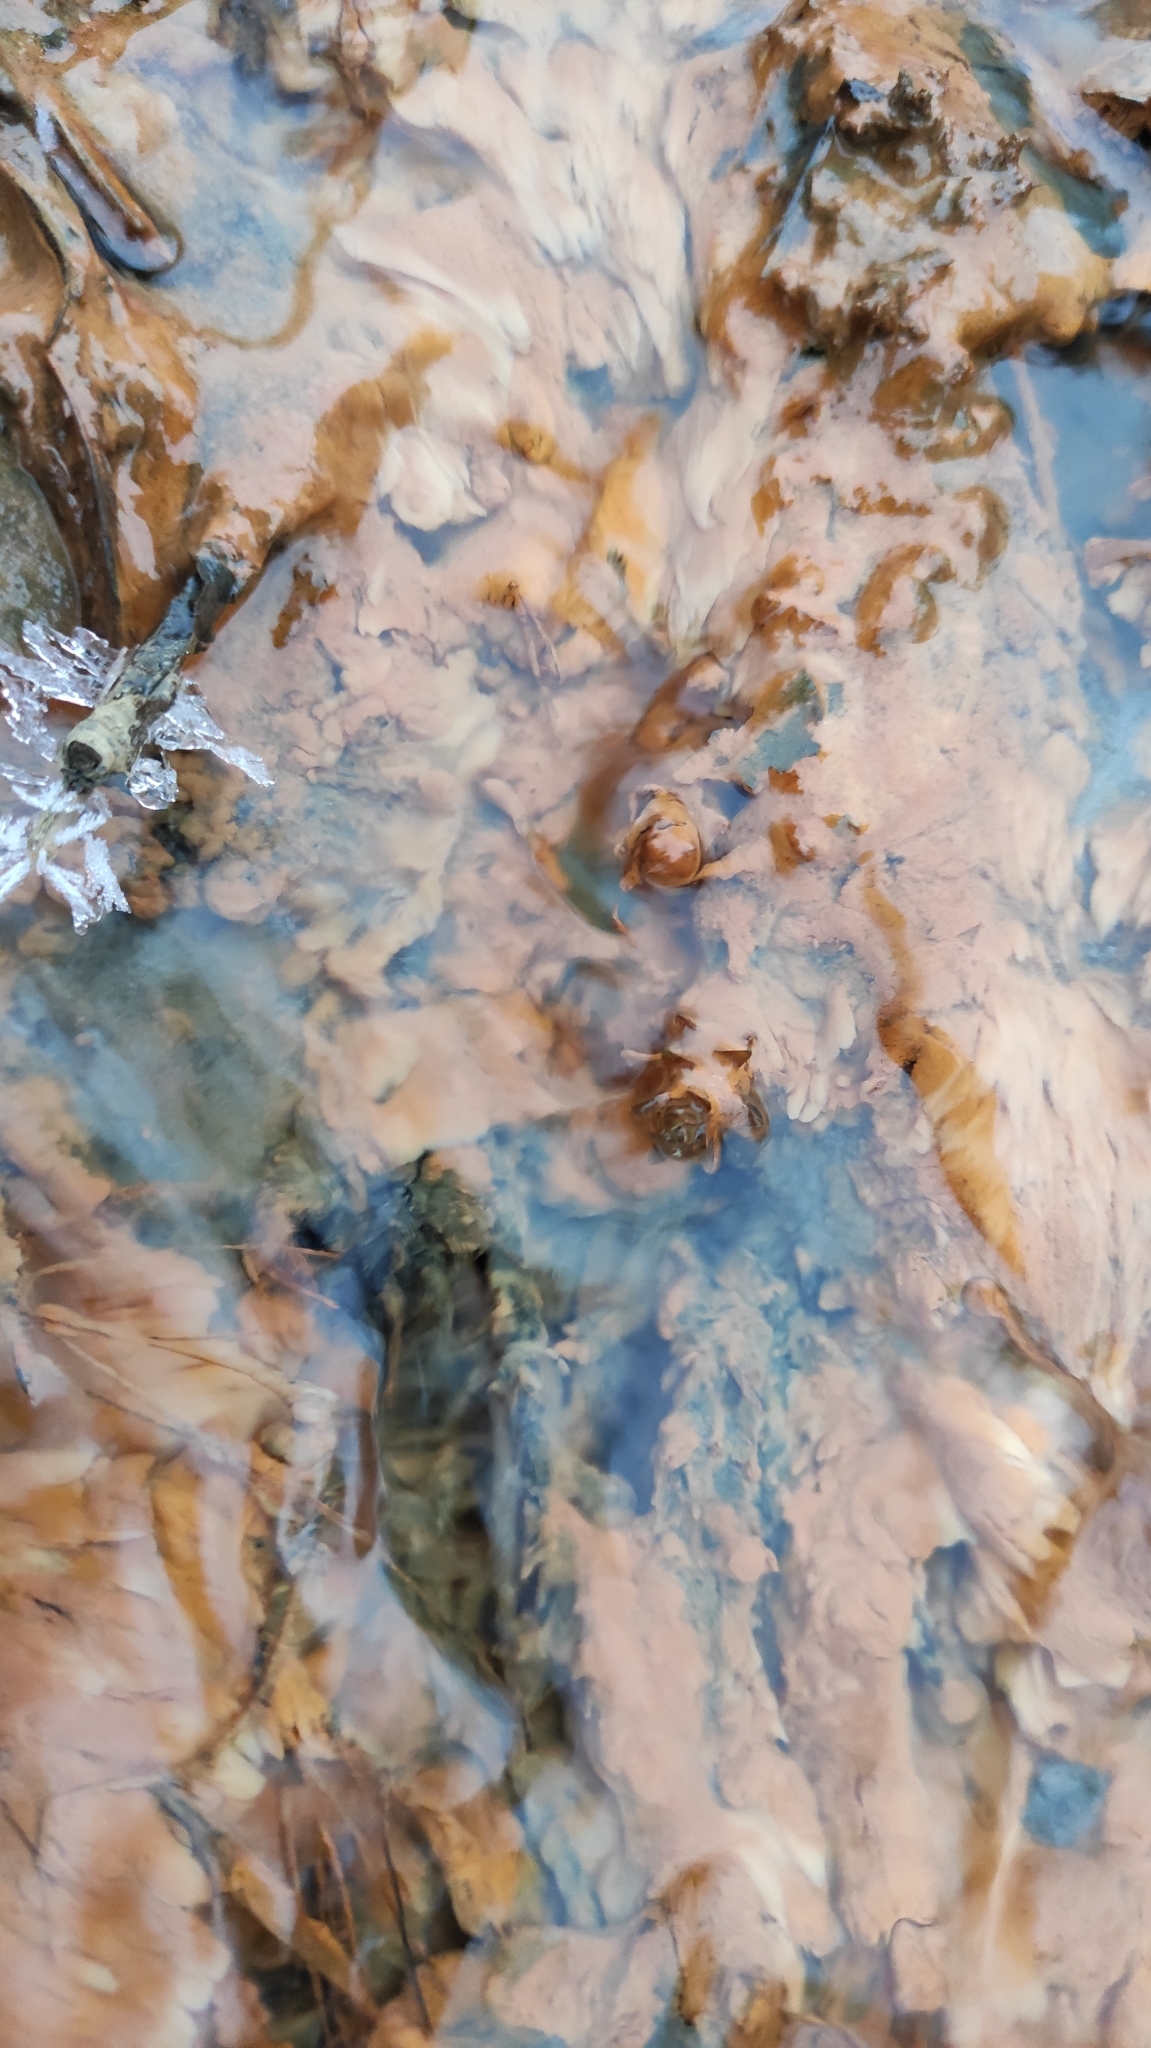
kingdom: Bacteria
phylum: Proteobacteria
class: Gammaproteobacteria
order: Burkholderiales
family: Burkholderiaceae
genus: Leptothrix
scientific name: Leptothrix
